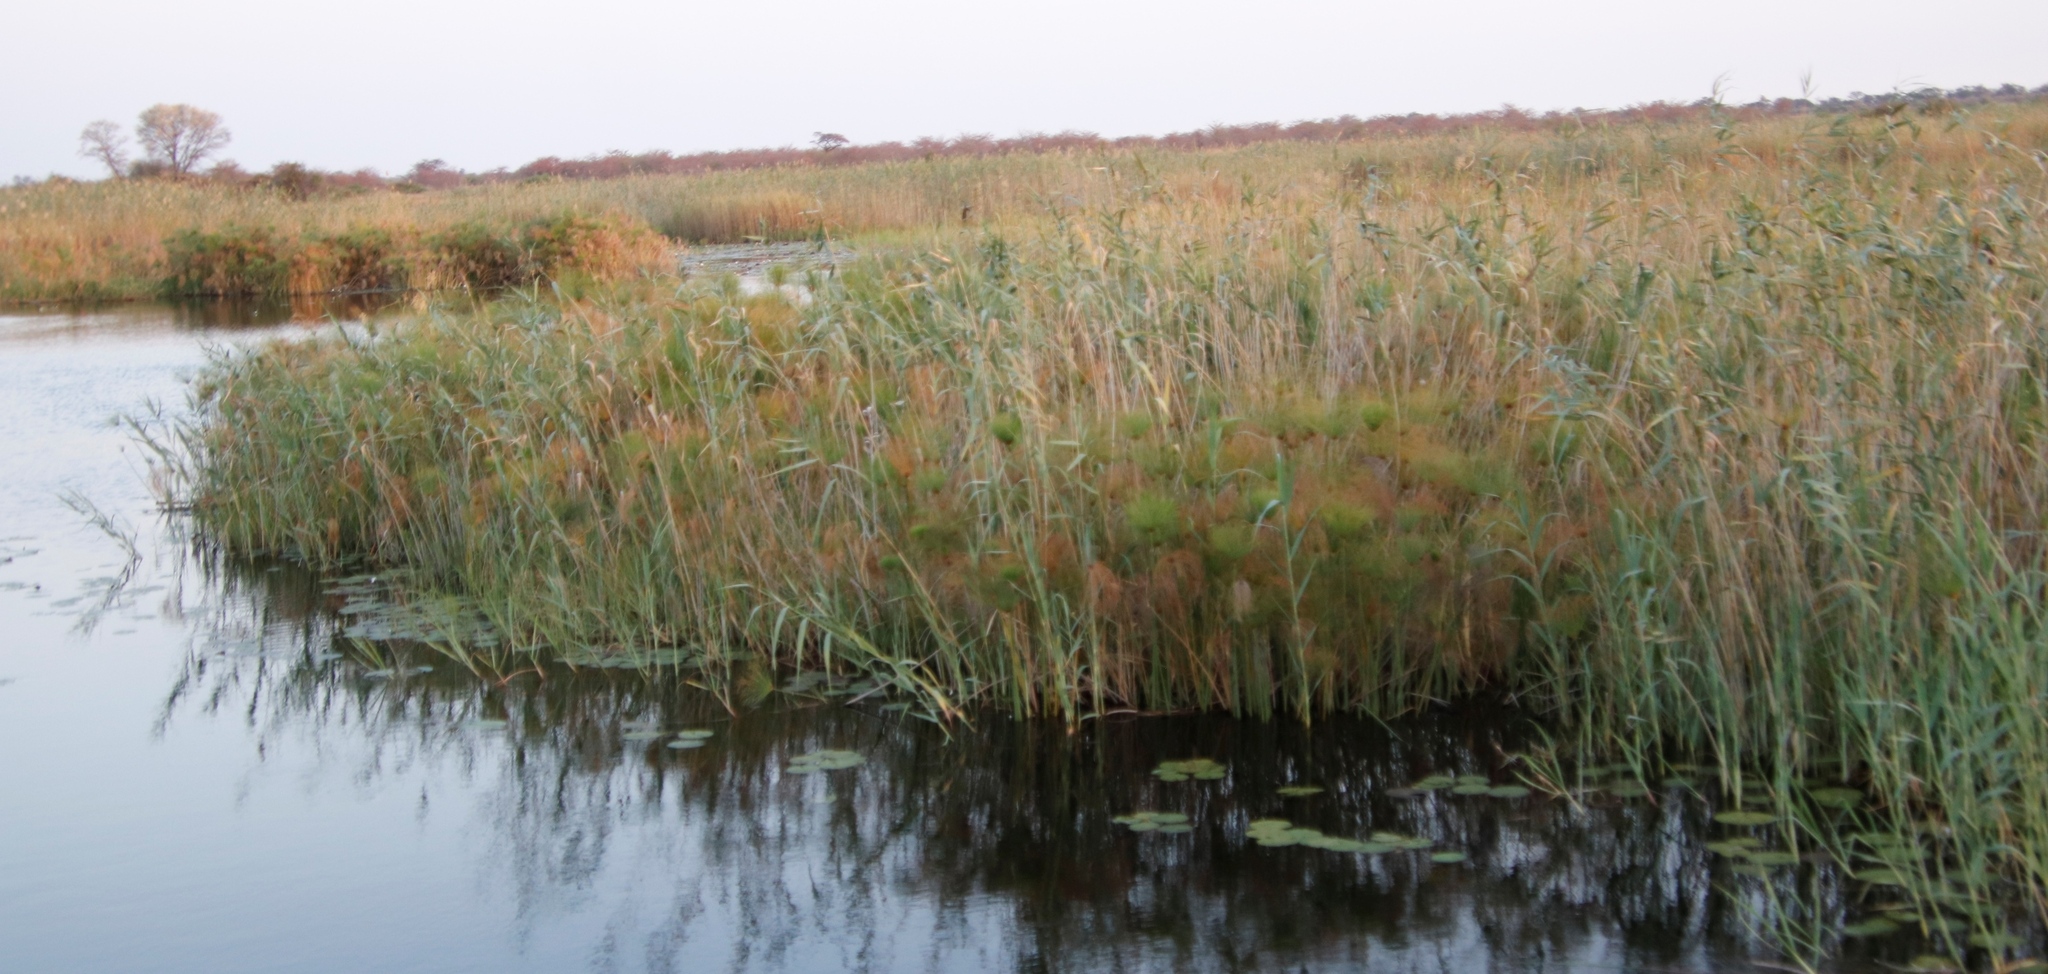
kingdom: Plantae
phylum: Tracheophyta
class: Liliopsida
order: Poales
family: Poaceae
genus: Phragmites
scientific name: Phragmites australis
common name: Common reed
